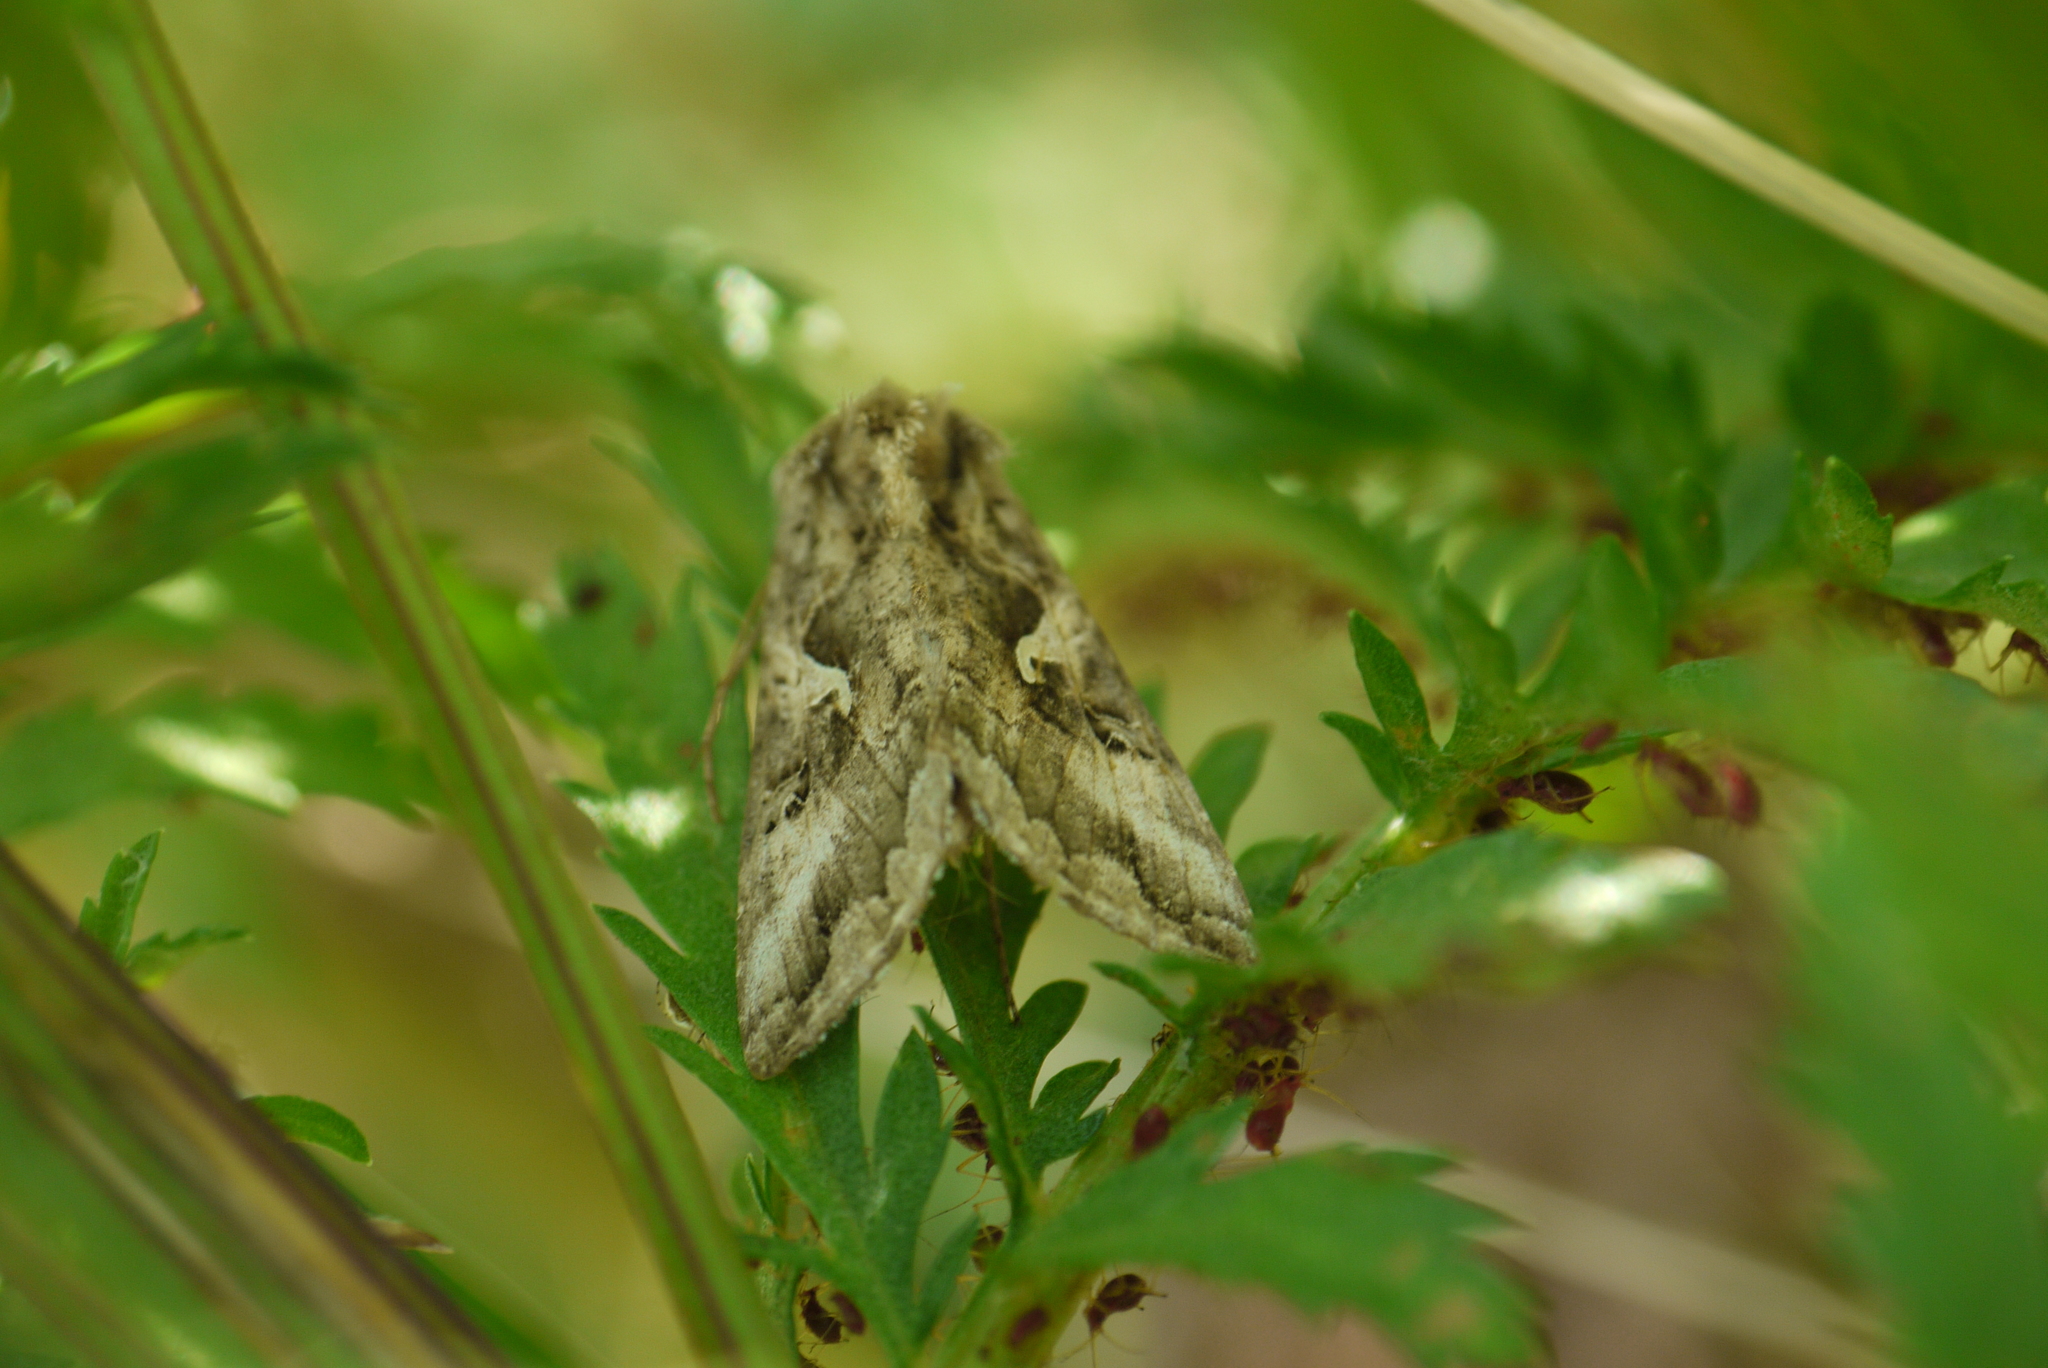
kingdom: Animalia
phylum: Arthropoda
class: Insecta
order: Lepidoptera
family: Noctuidae
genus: Autographa
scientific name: Autographa gamma
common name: Silver y
